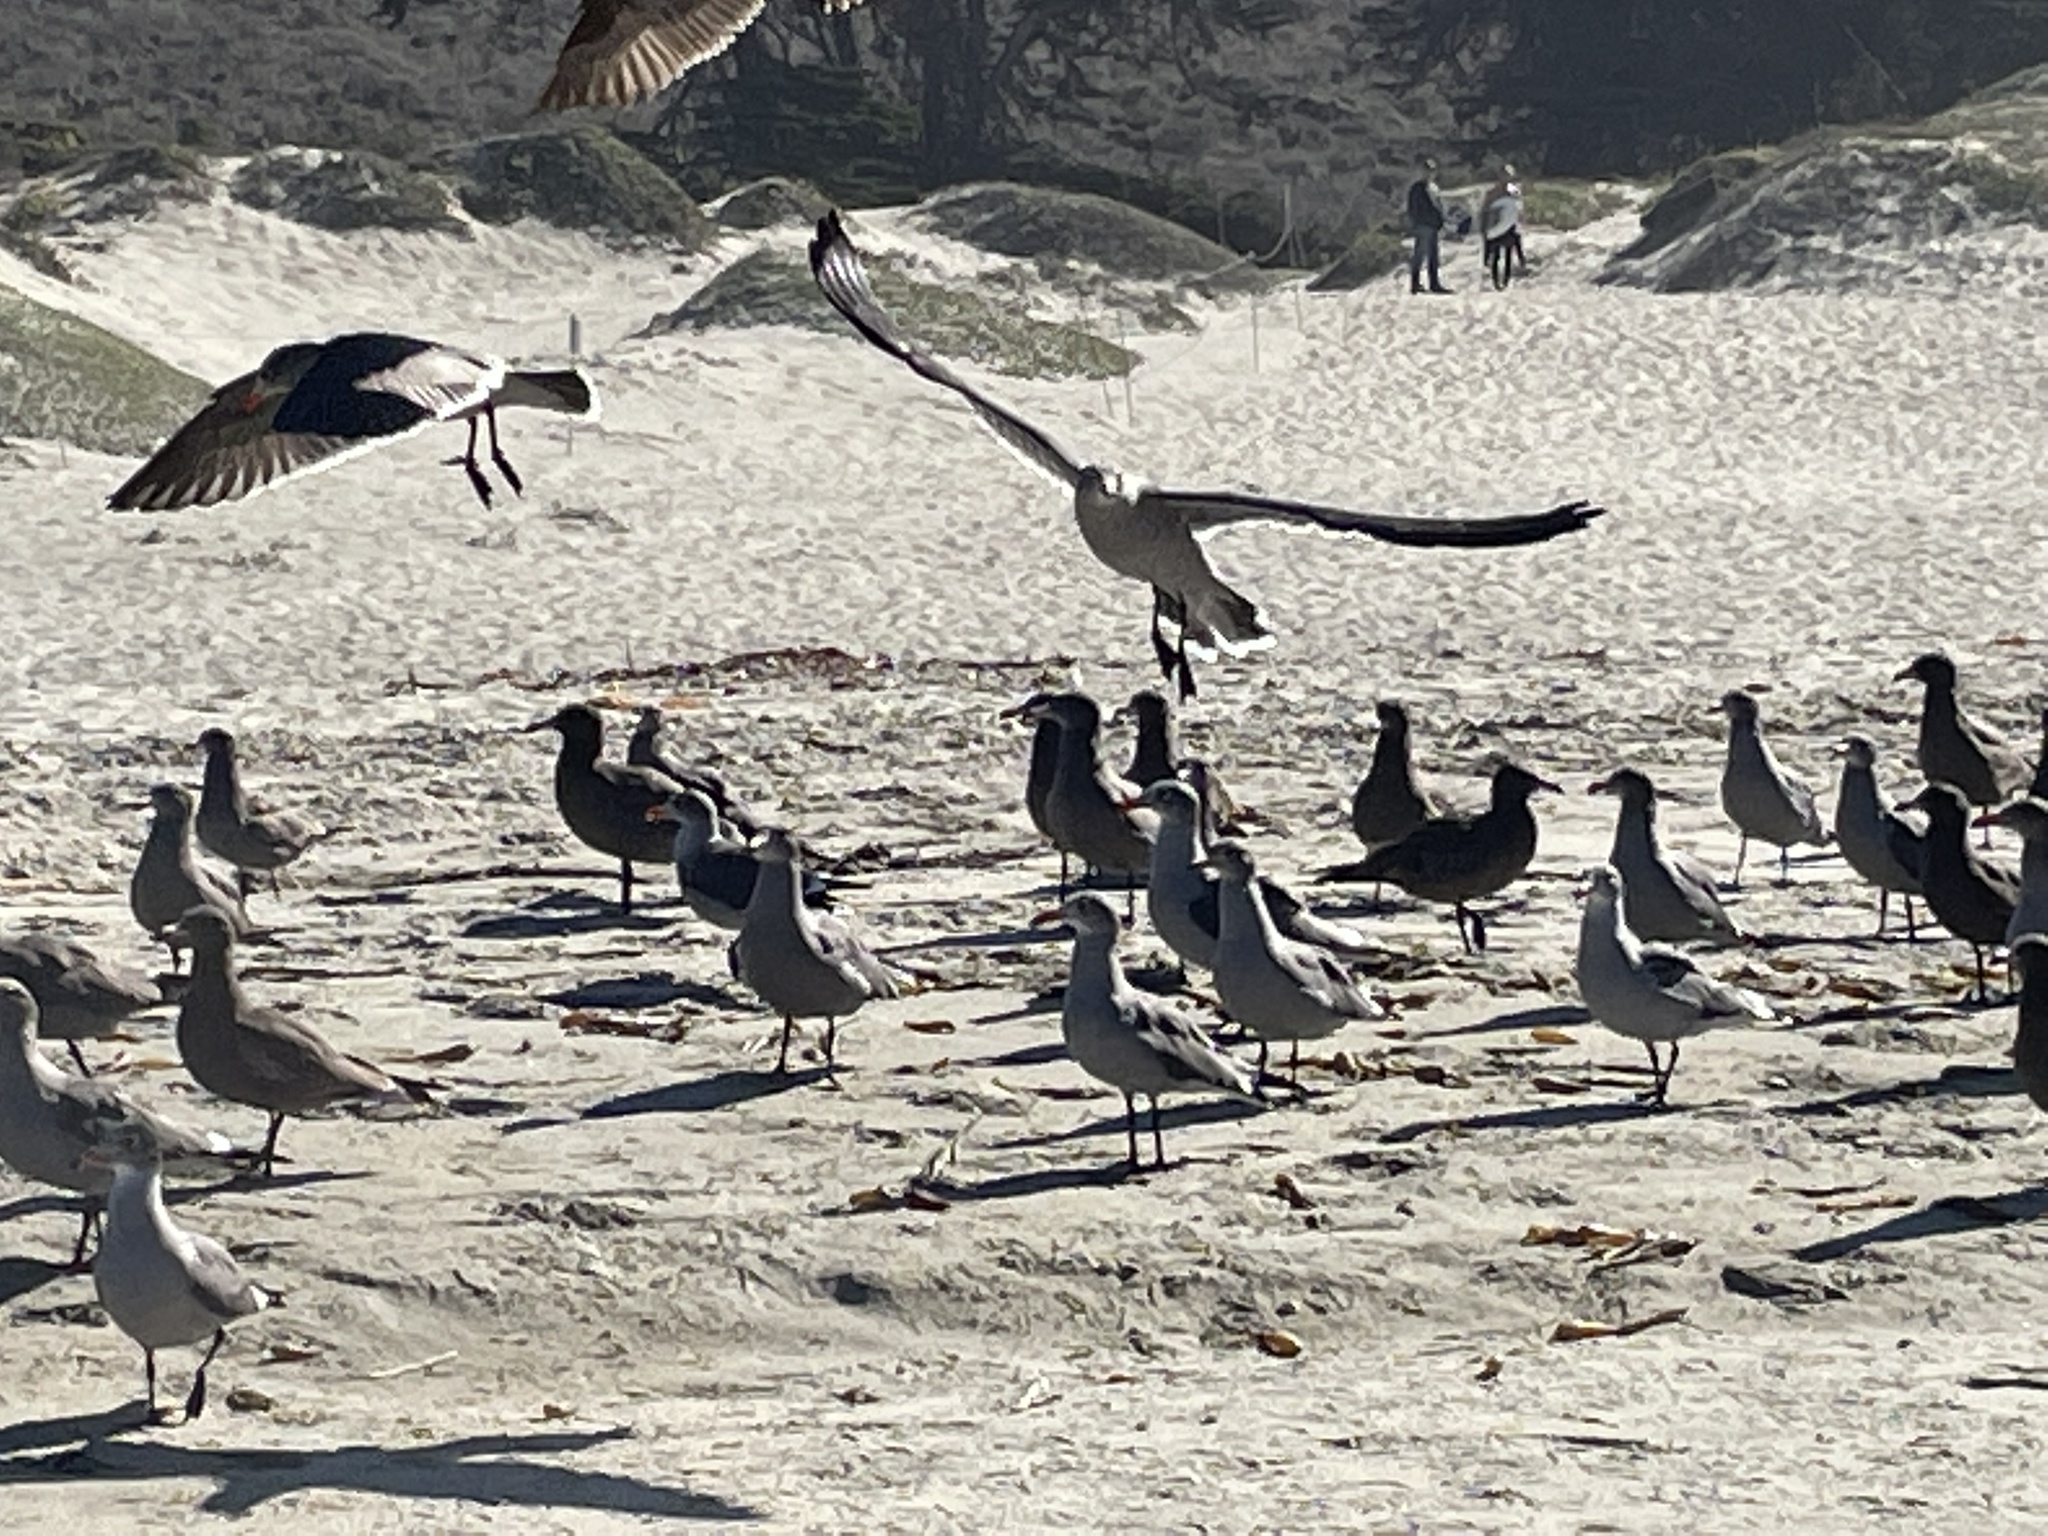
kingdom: Animalia
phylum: Chordata
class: Aves
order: Charadriiformes
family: Laridae
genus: Larus
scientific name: Larus heermanni
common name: Heermann's gull
